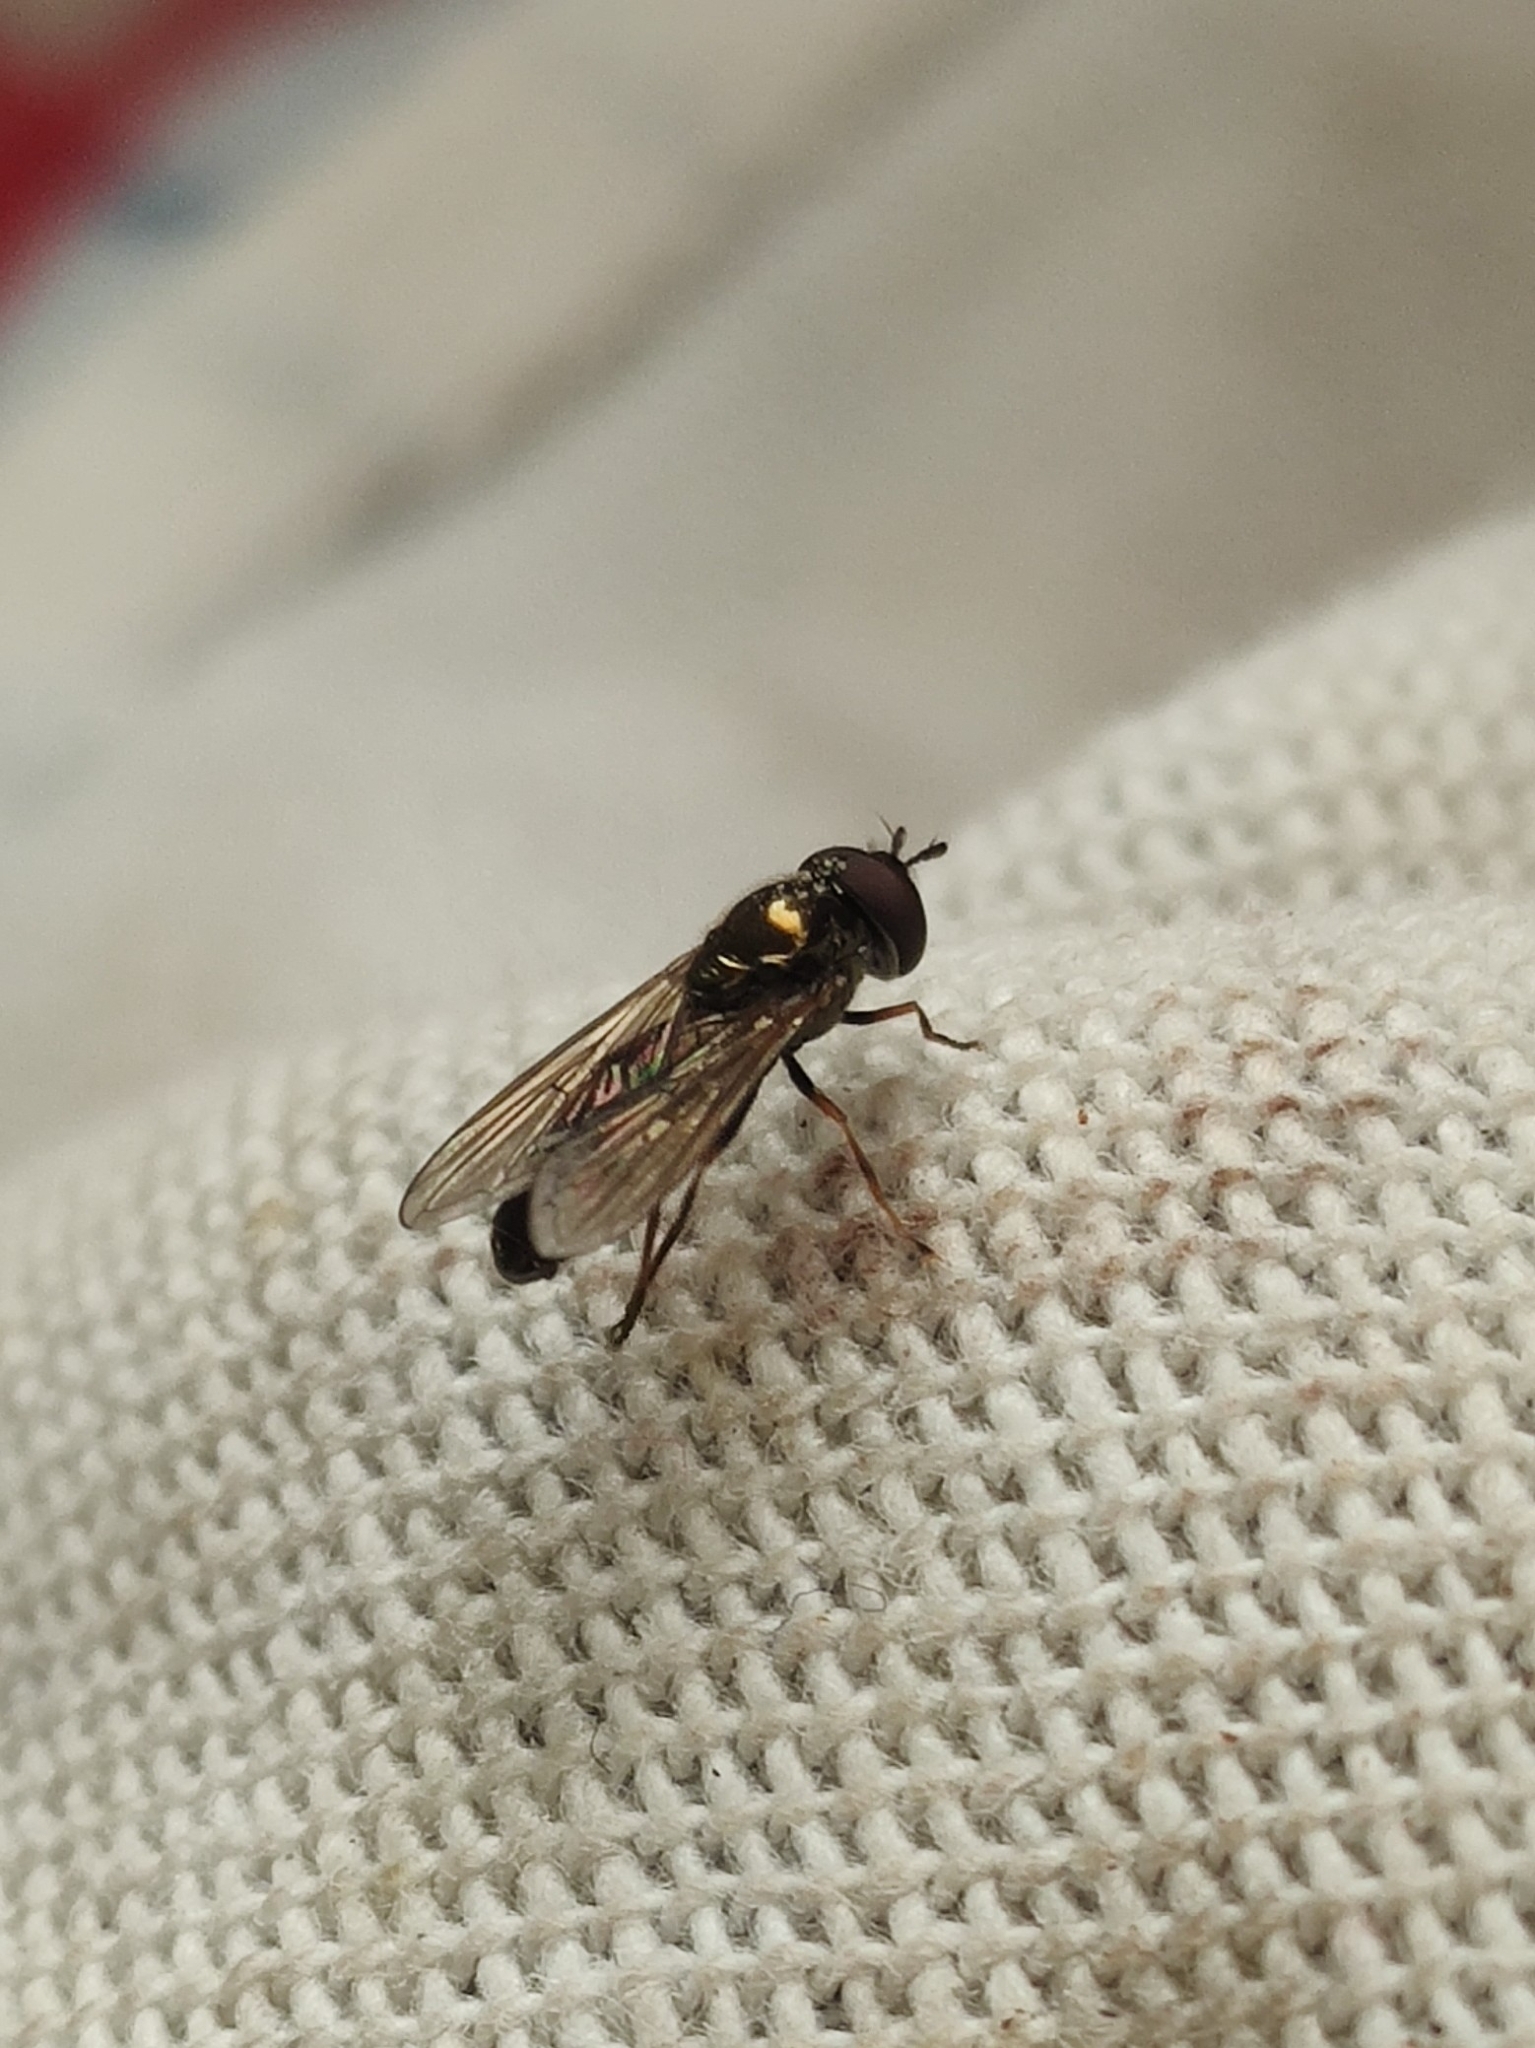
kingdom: Animalia
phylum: Arthropoda
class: Insecta
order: Diptera
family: Syrphidae
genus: Melanostoma
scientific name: Melanostoma scalare
